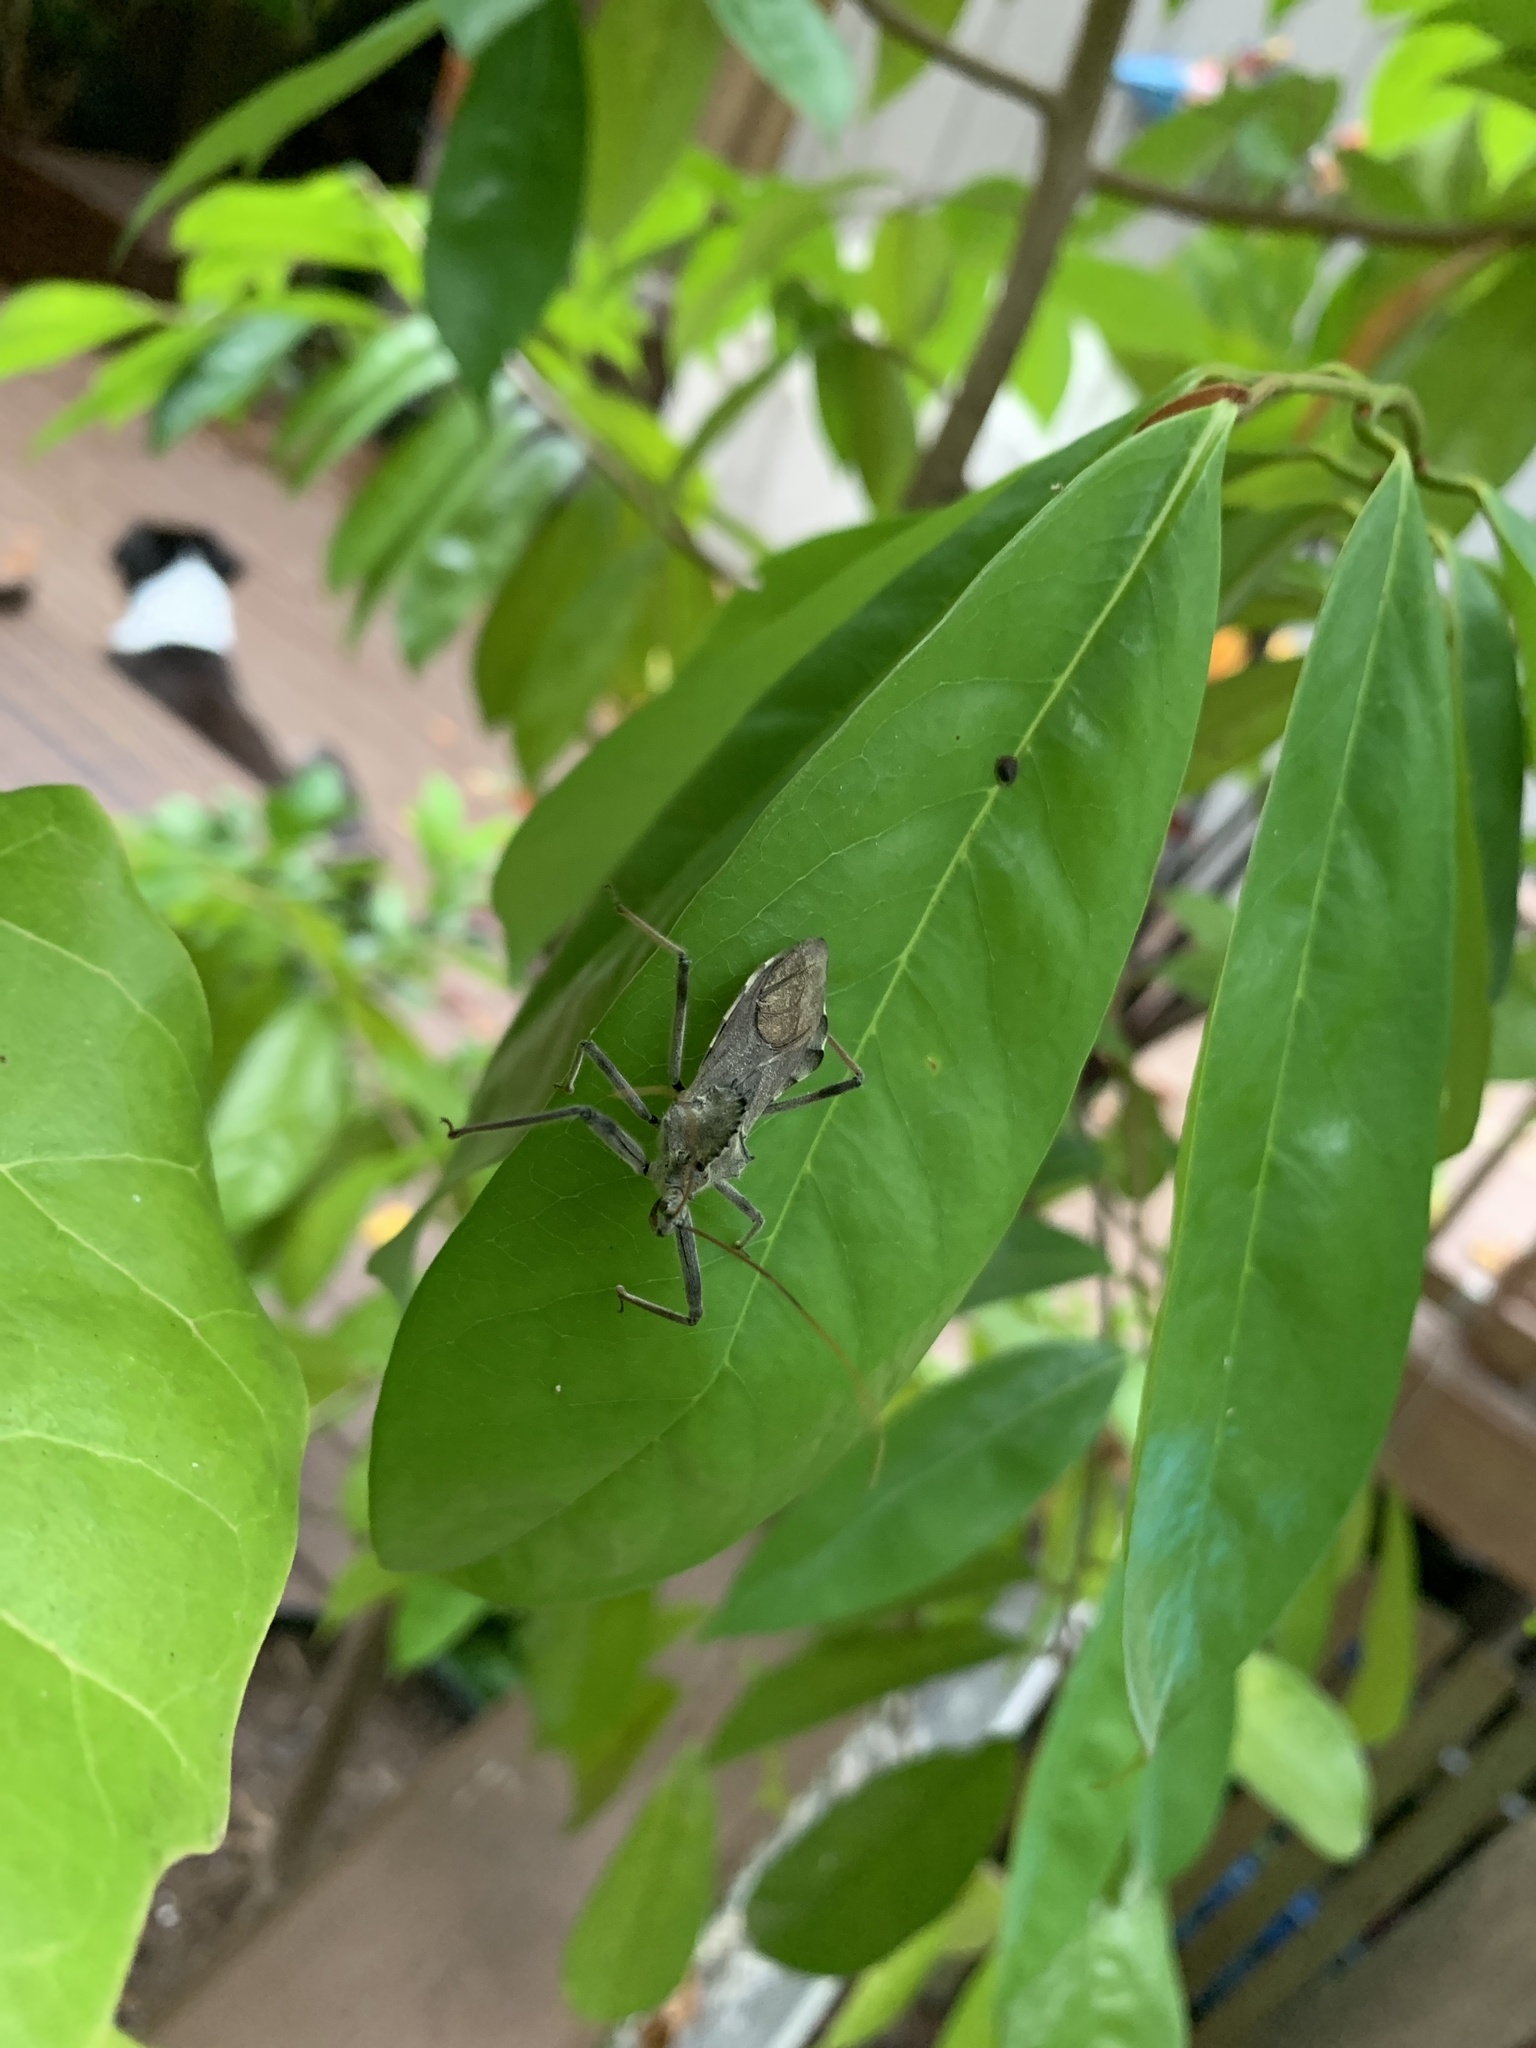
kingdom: Animalia
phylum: Arthropoda
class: Insecta
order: Hemiptera
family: Reduviidae
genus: Arilus
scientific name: Arilus cristatus
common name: North american wheel bug
